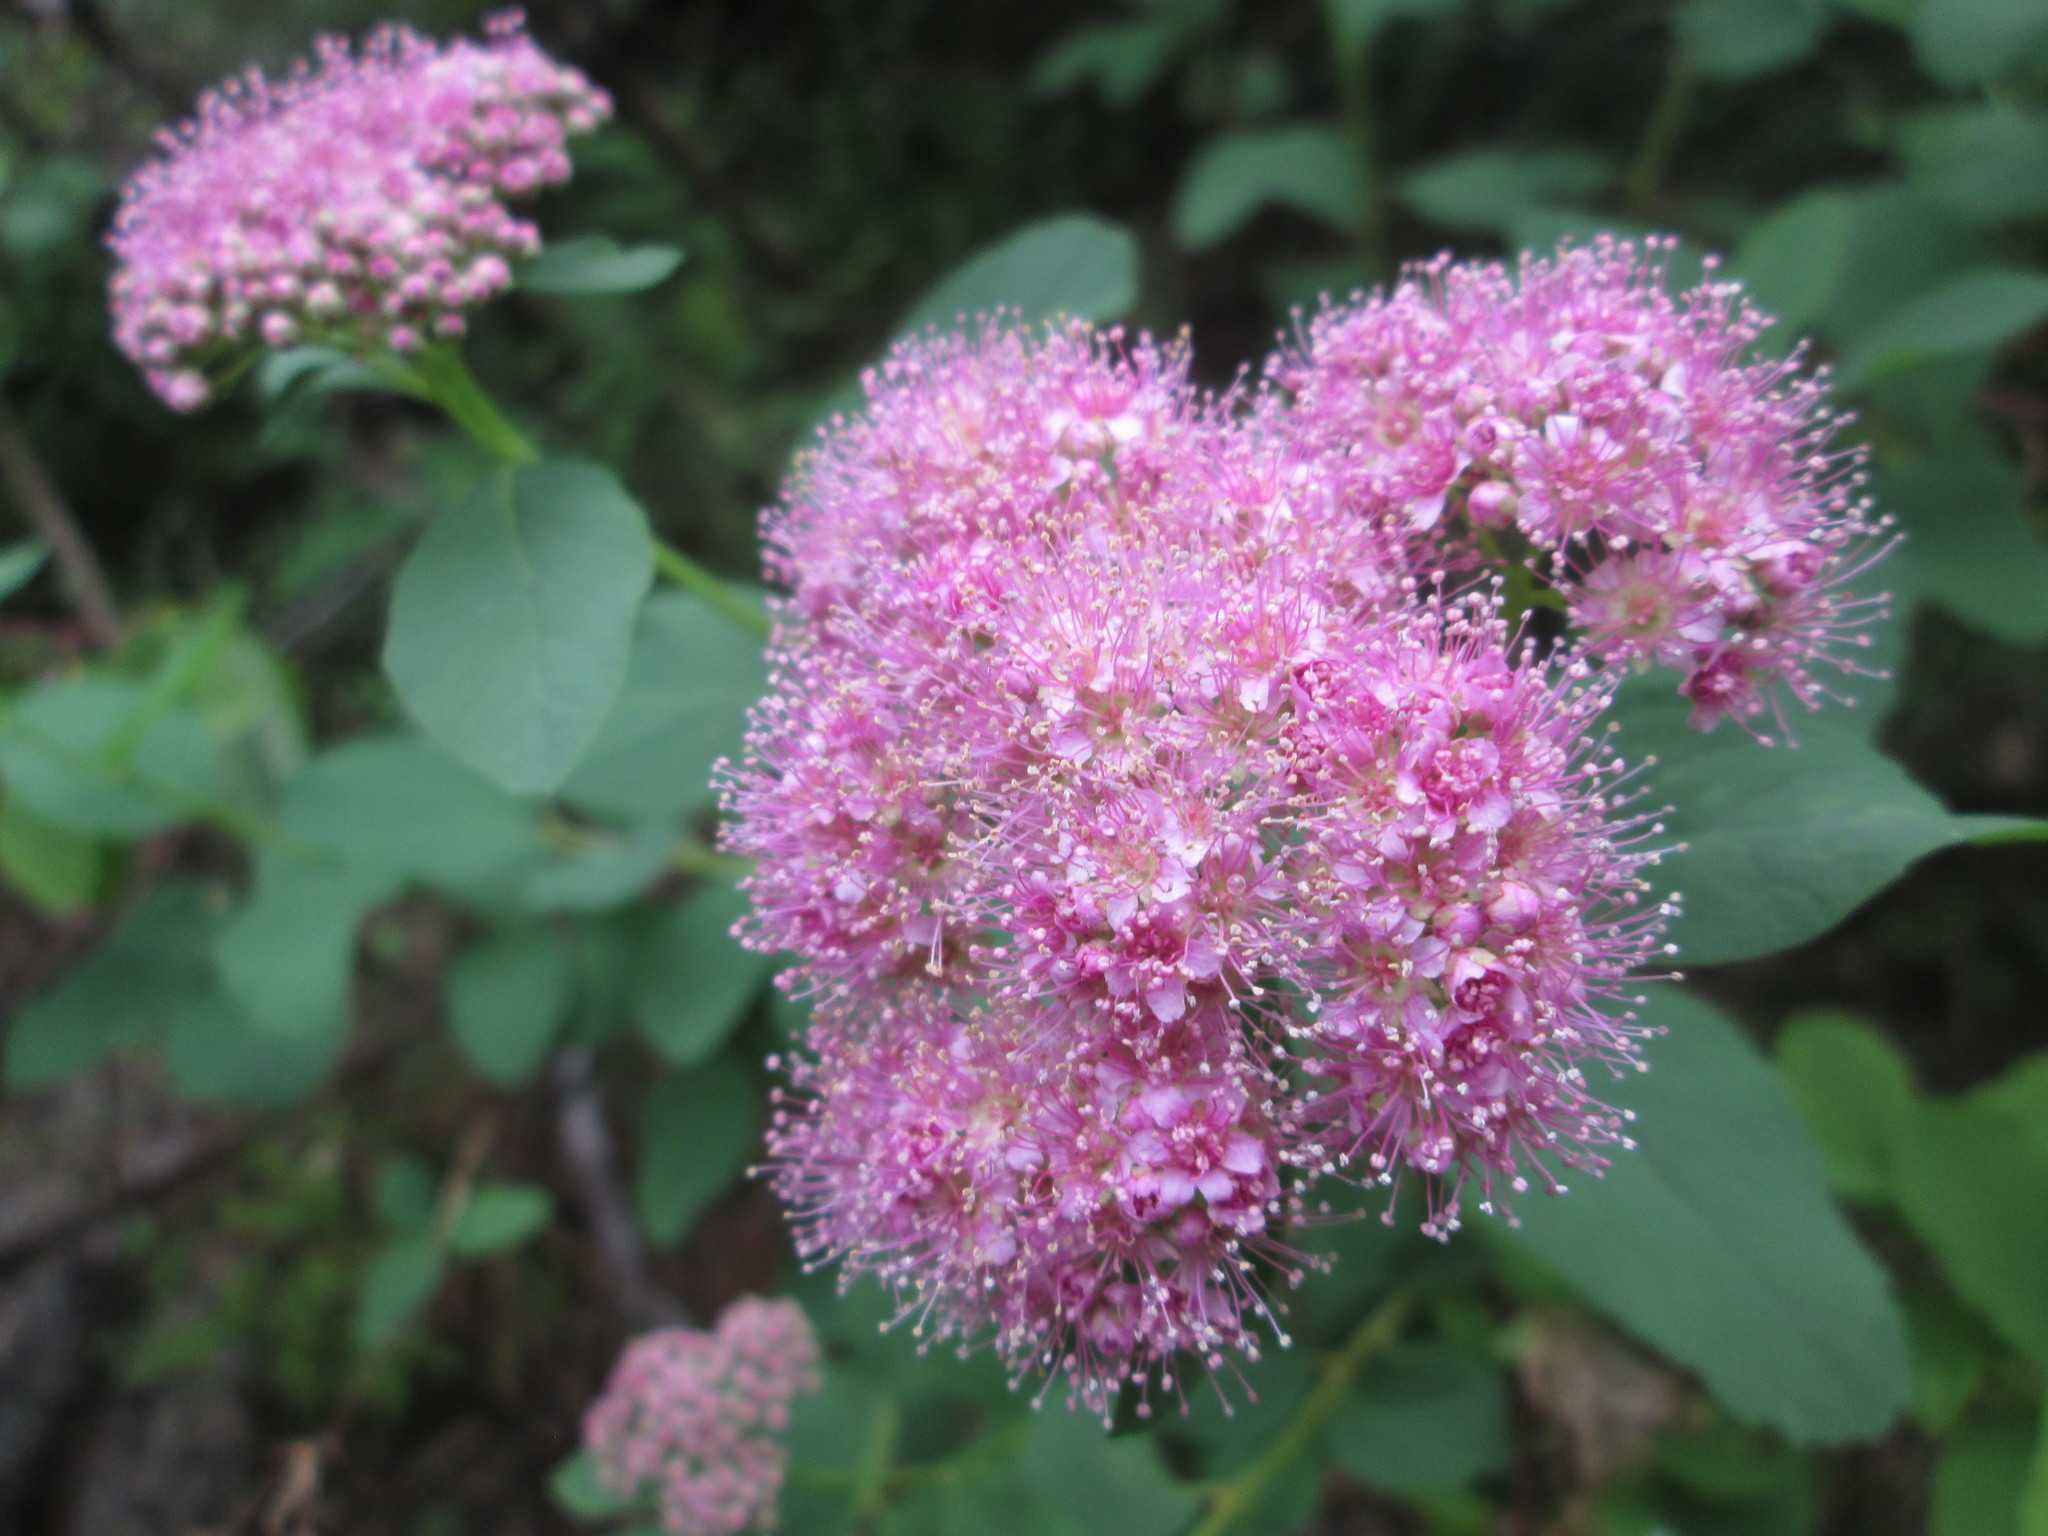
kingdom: Plantae
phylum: Tracheophyta
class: Magnoliopsida
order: Rosales
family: Rosaceae
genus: Spiraea
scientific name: Spiraea splendens
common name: Subalpine meadowsweet
